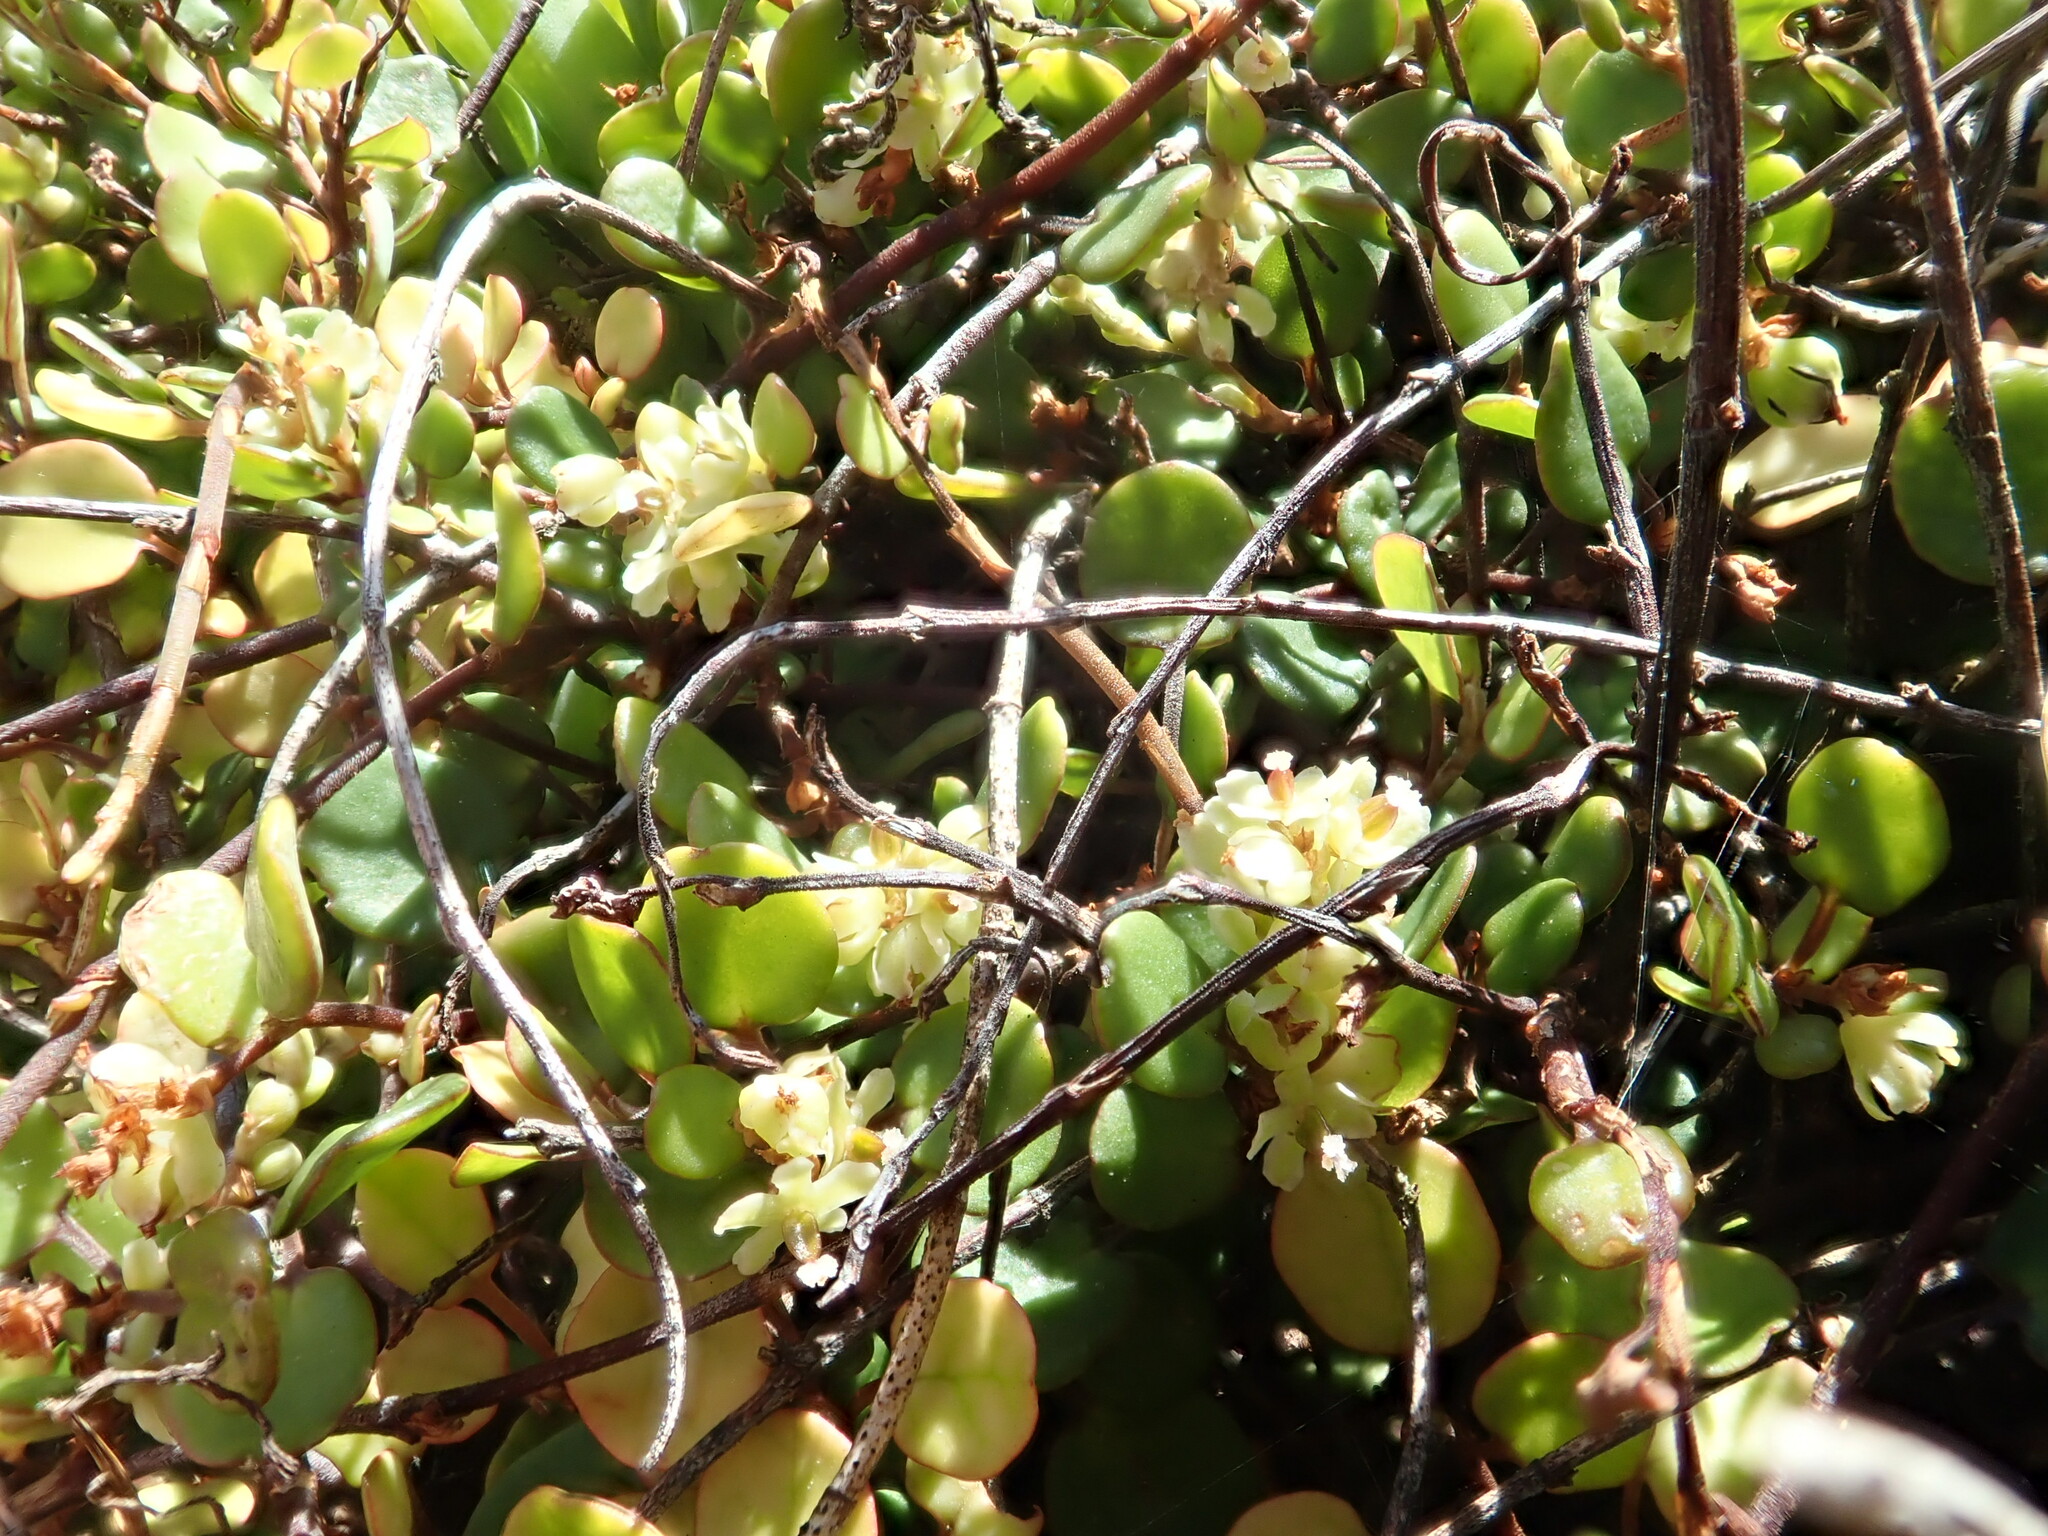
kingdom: Plantae
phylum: Tracheophyta
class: Magnoliopsida
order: Caryophyllales
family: Polygonaceae
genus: Muehlenbeckia
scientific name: Muehlenbeckia complexa
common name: Wireplant
